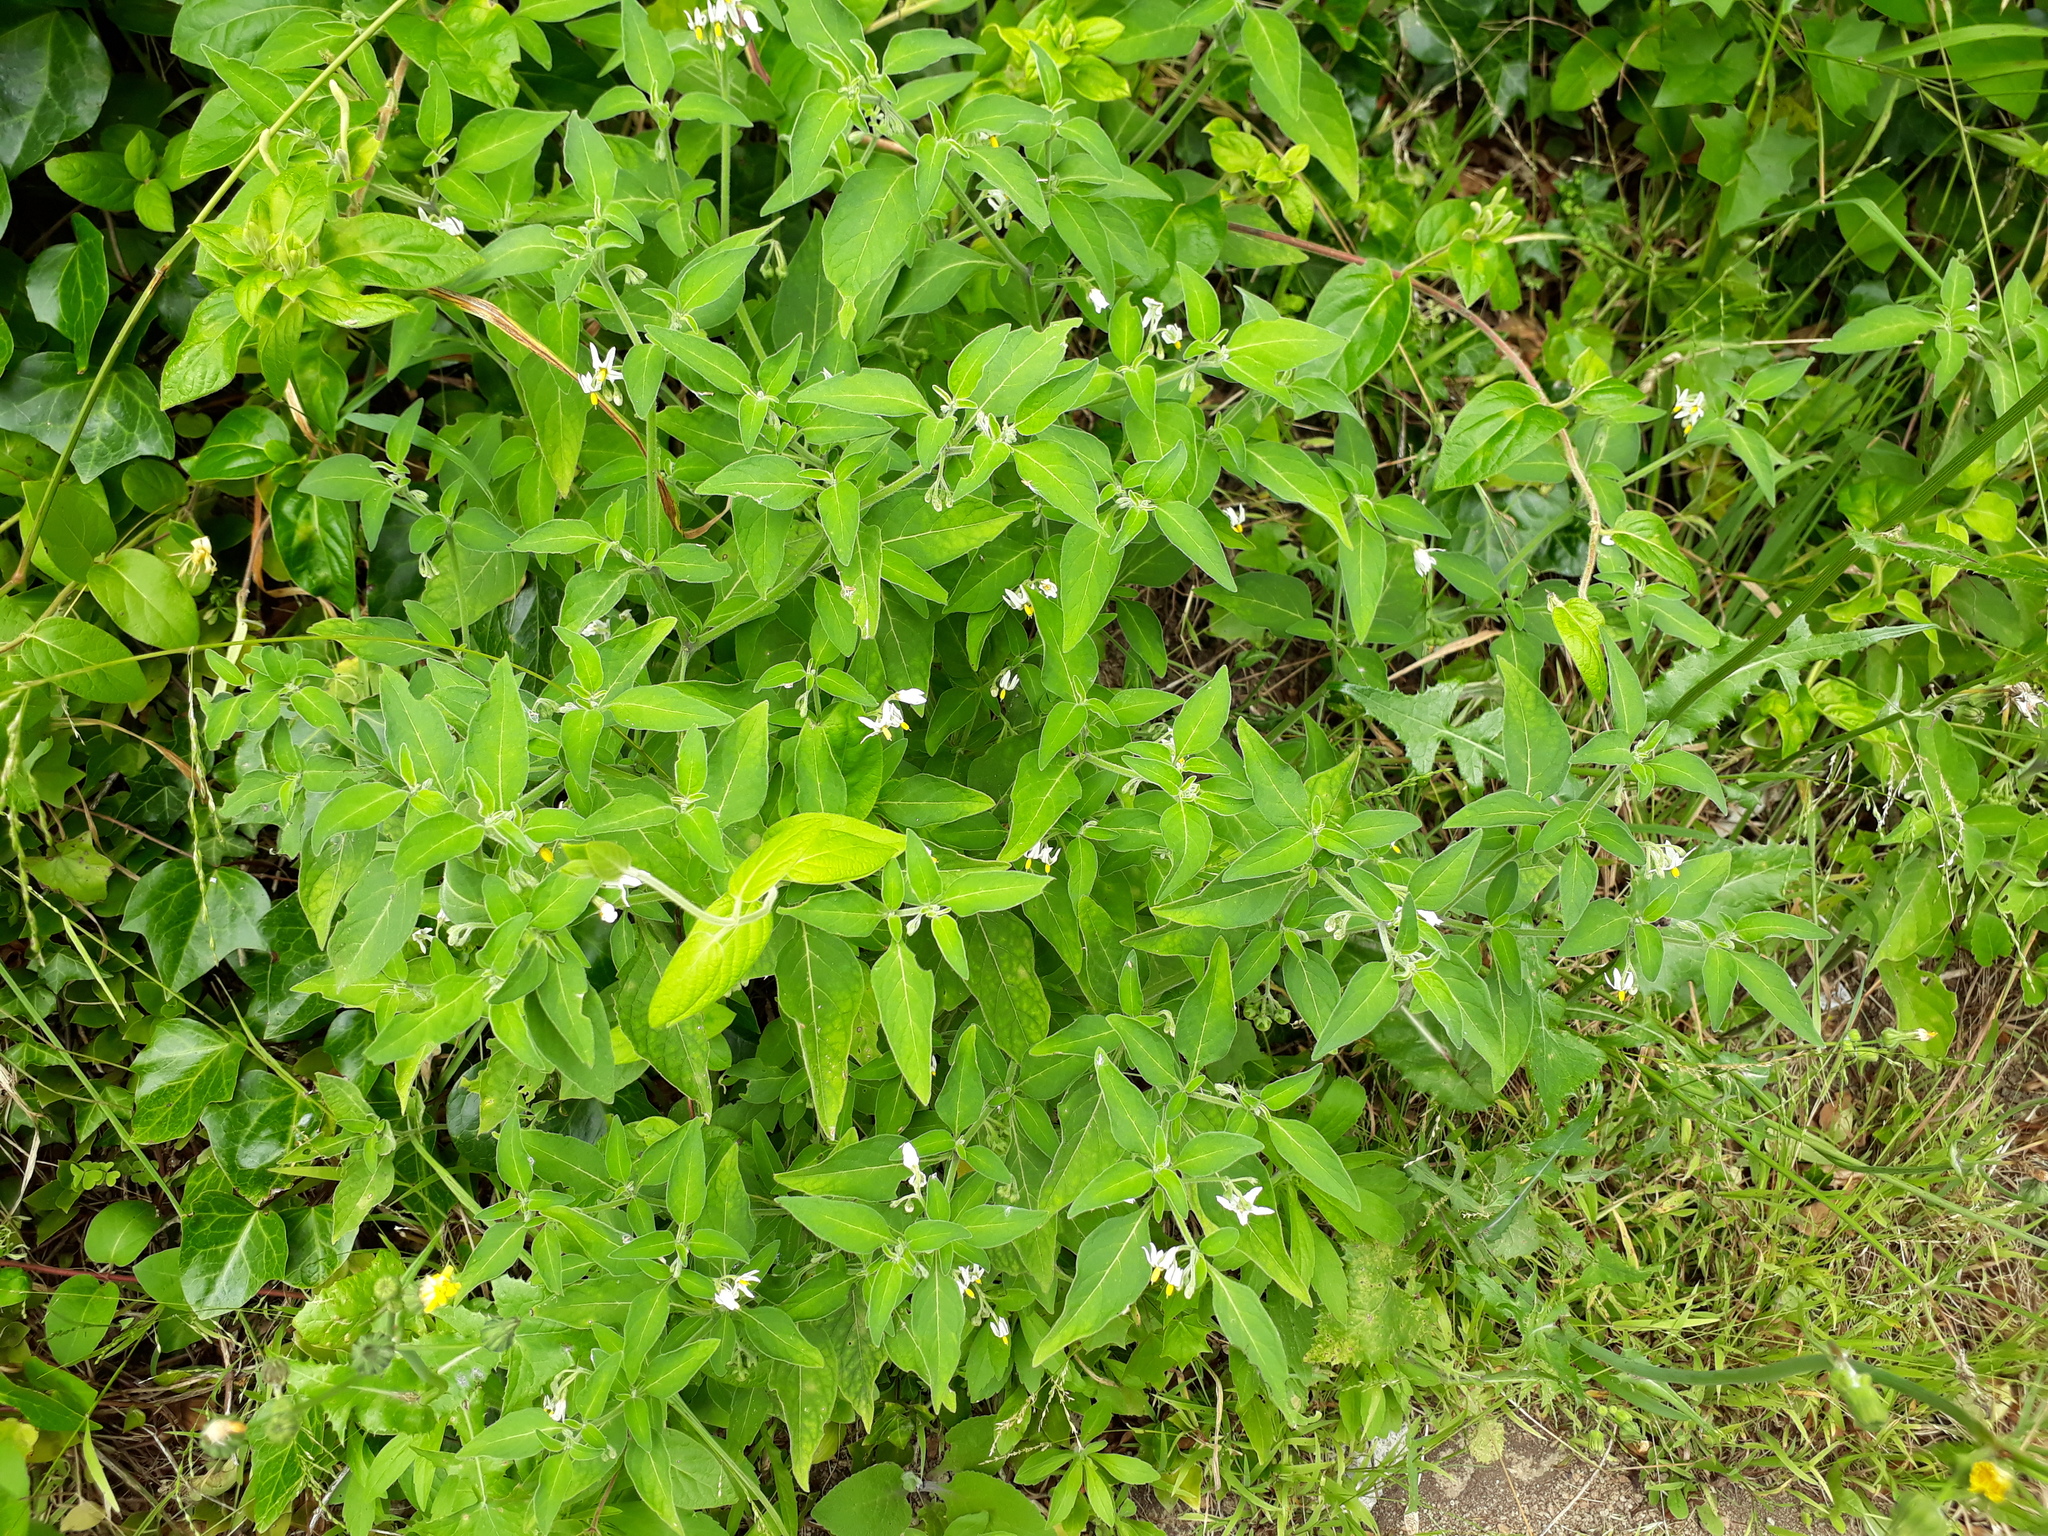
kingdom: Plantae
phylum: Tracheophyta
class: Magnoliopsida
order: Solanales
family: Solanaceae
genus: Solanum
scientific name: Solanum chenopodioides
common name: Tall nightshade
